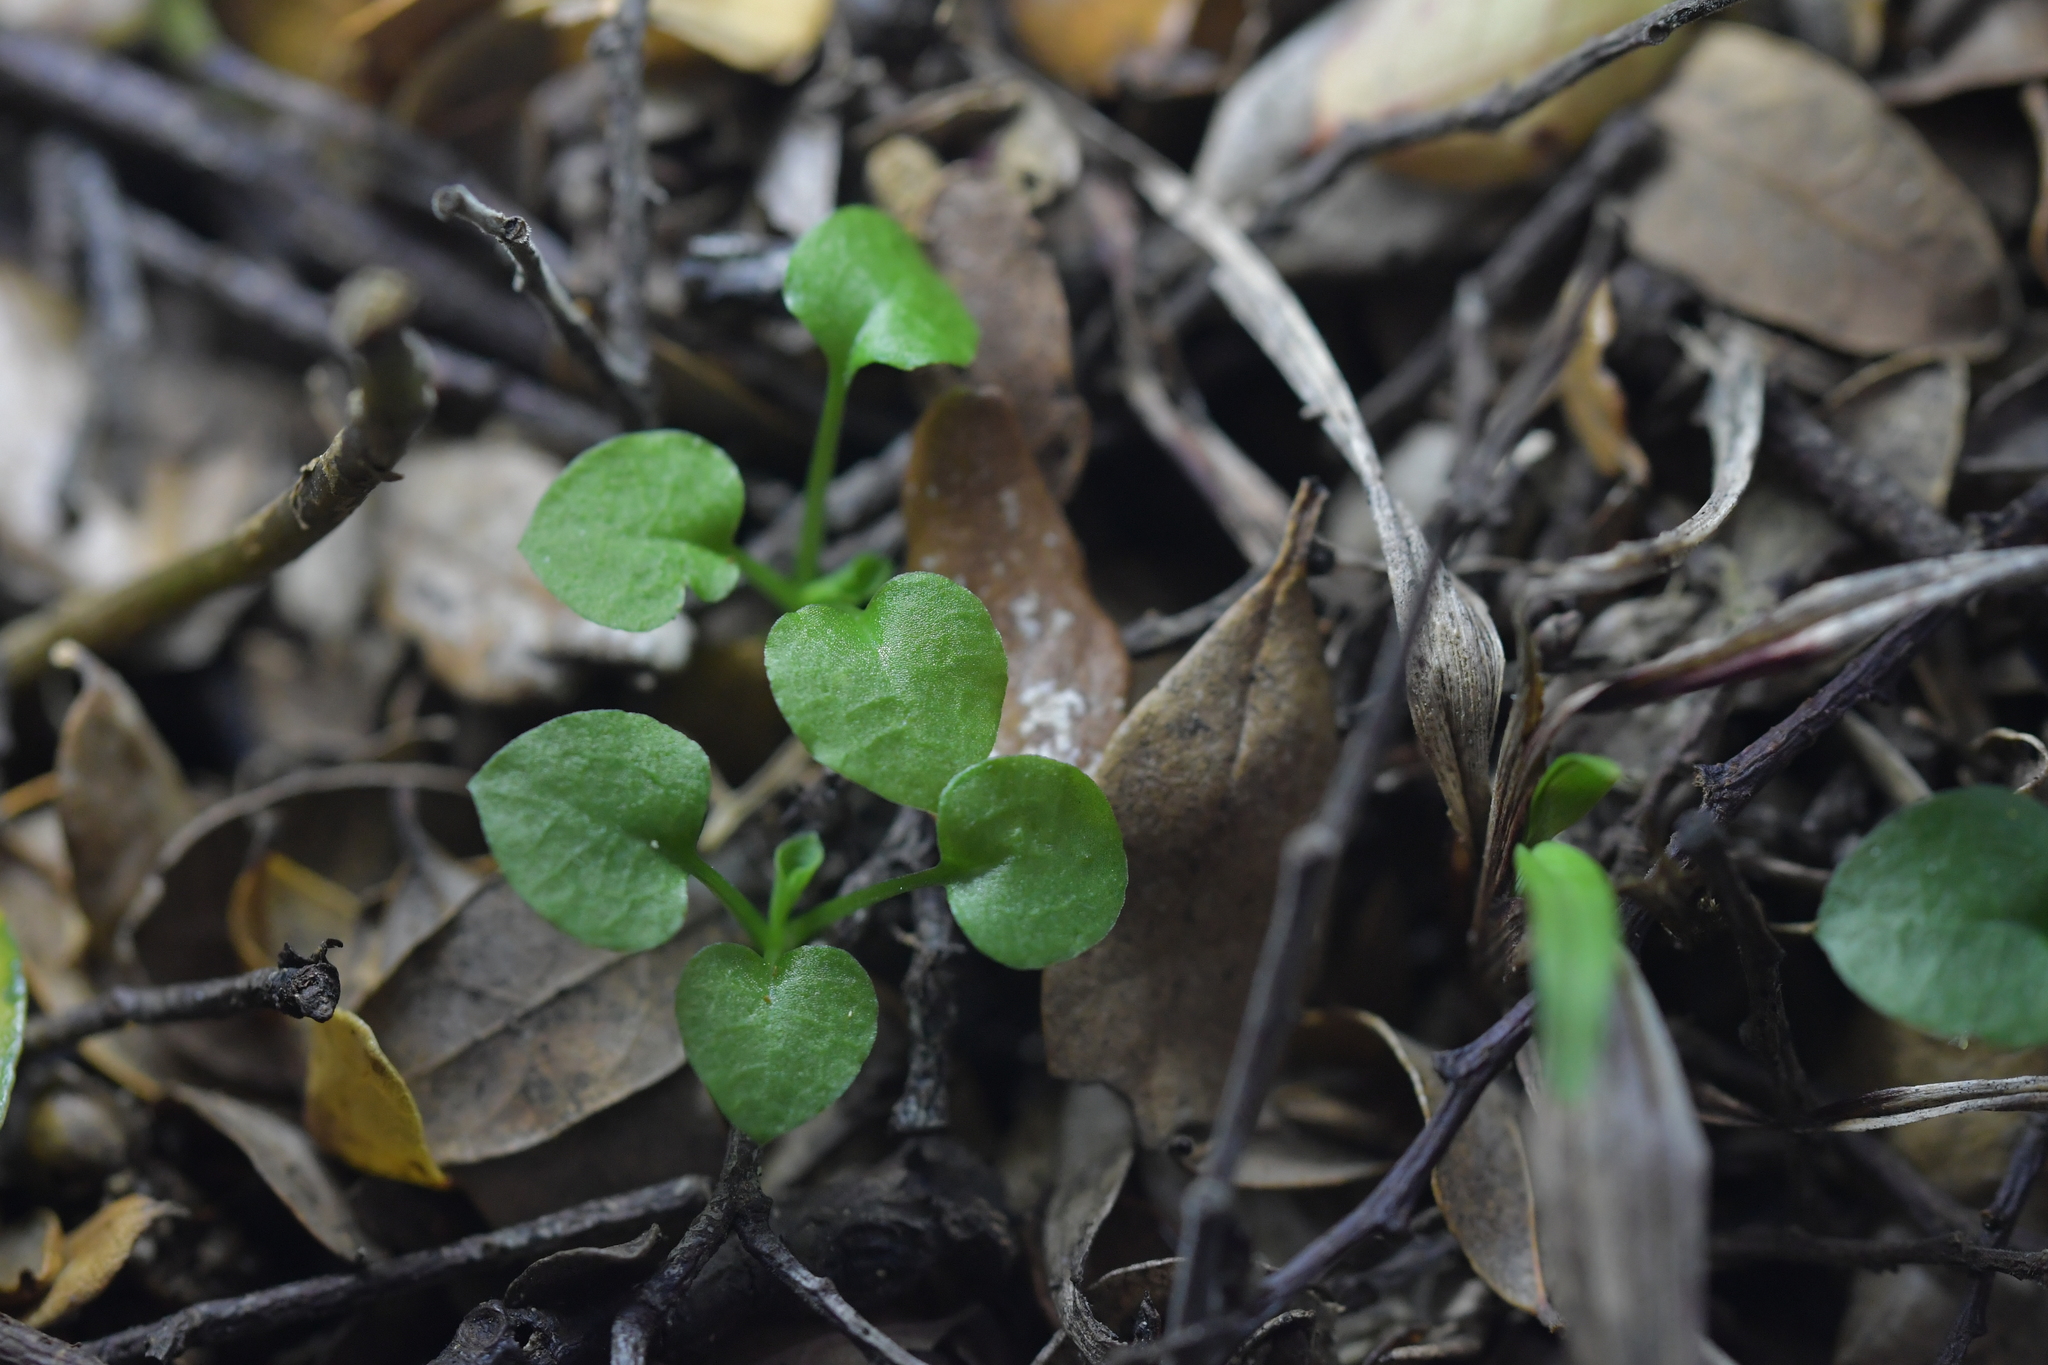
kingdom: Plantae
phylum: Tracheophyta
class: Liliopsida
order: Asparagales
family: Orchidaceae
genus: Pterostylis
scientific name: Pterostylis alobula
